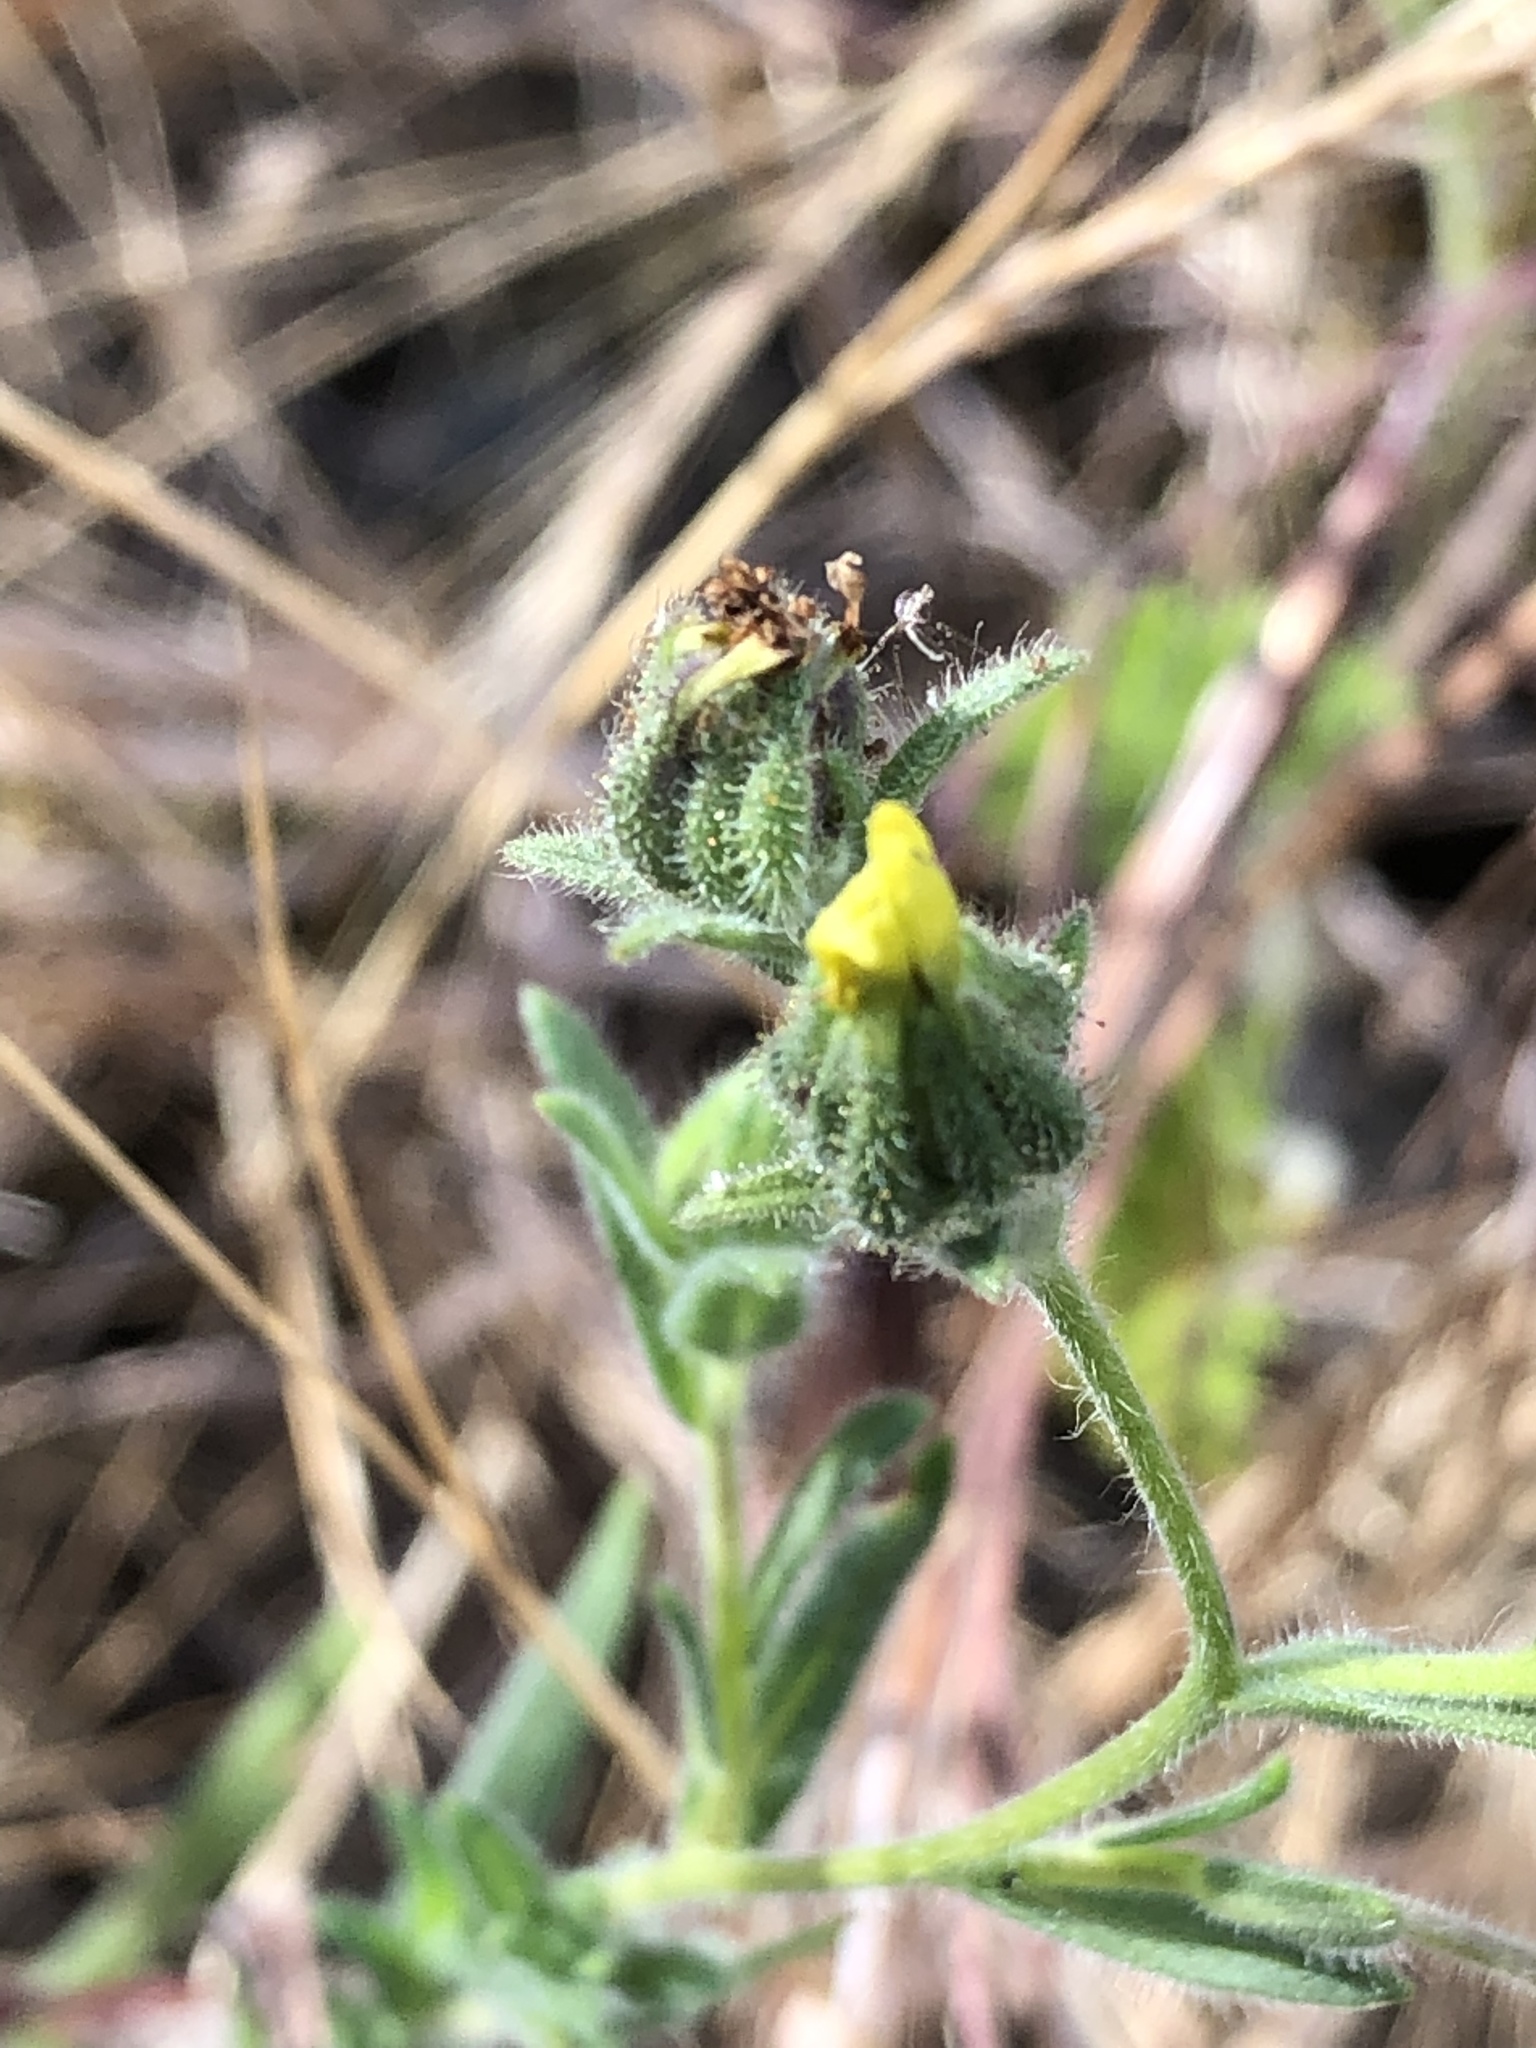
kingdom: Plantae
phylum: Tracheophyta
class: Magnoliopsida
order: Asterales
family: Asteraceae
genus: Madia
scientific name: Madia gracilis
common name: Grassy tarweed
